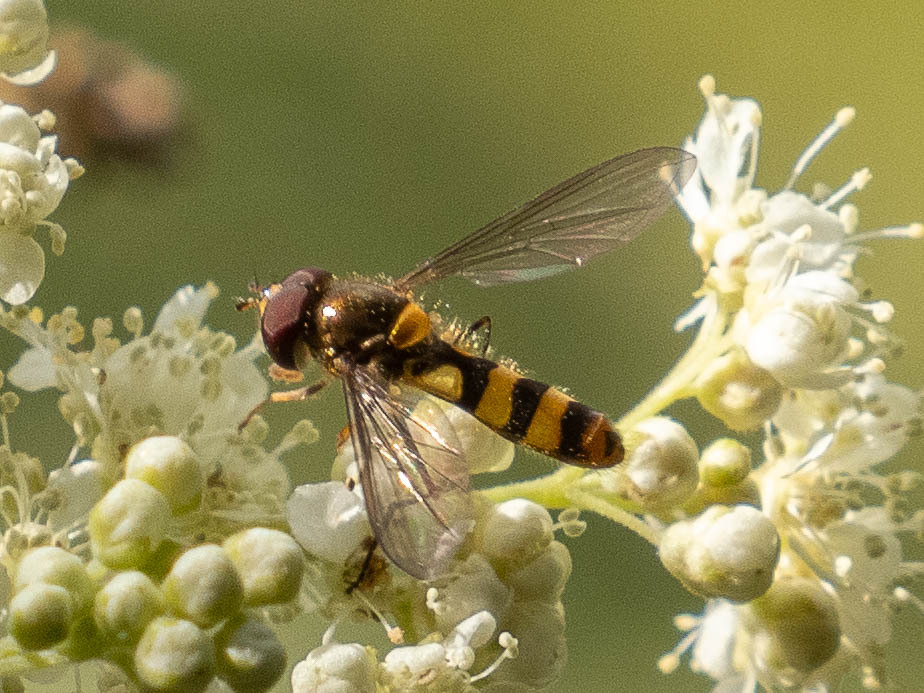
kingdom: Animalia
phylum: Arthropoda
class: Insecta
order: Diptera
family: Syrphidae
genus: Meliscaeva
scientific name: Meliscaeva cinctella
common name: American thintail fly
